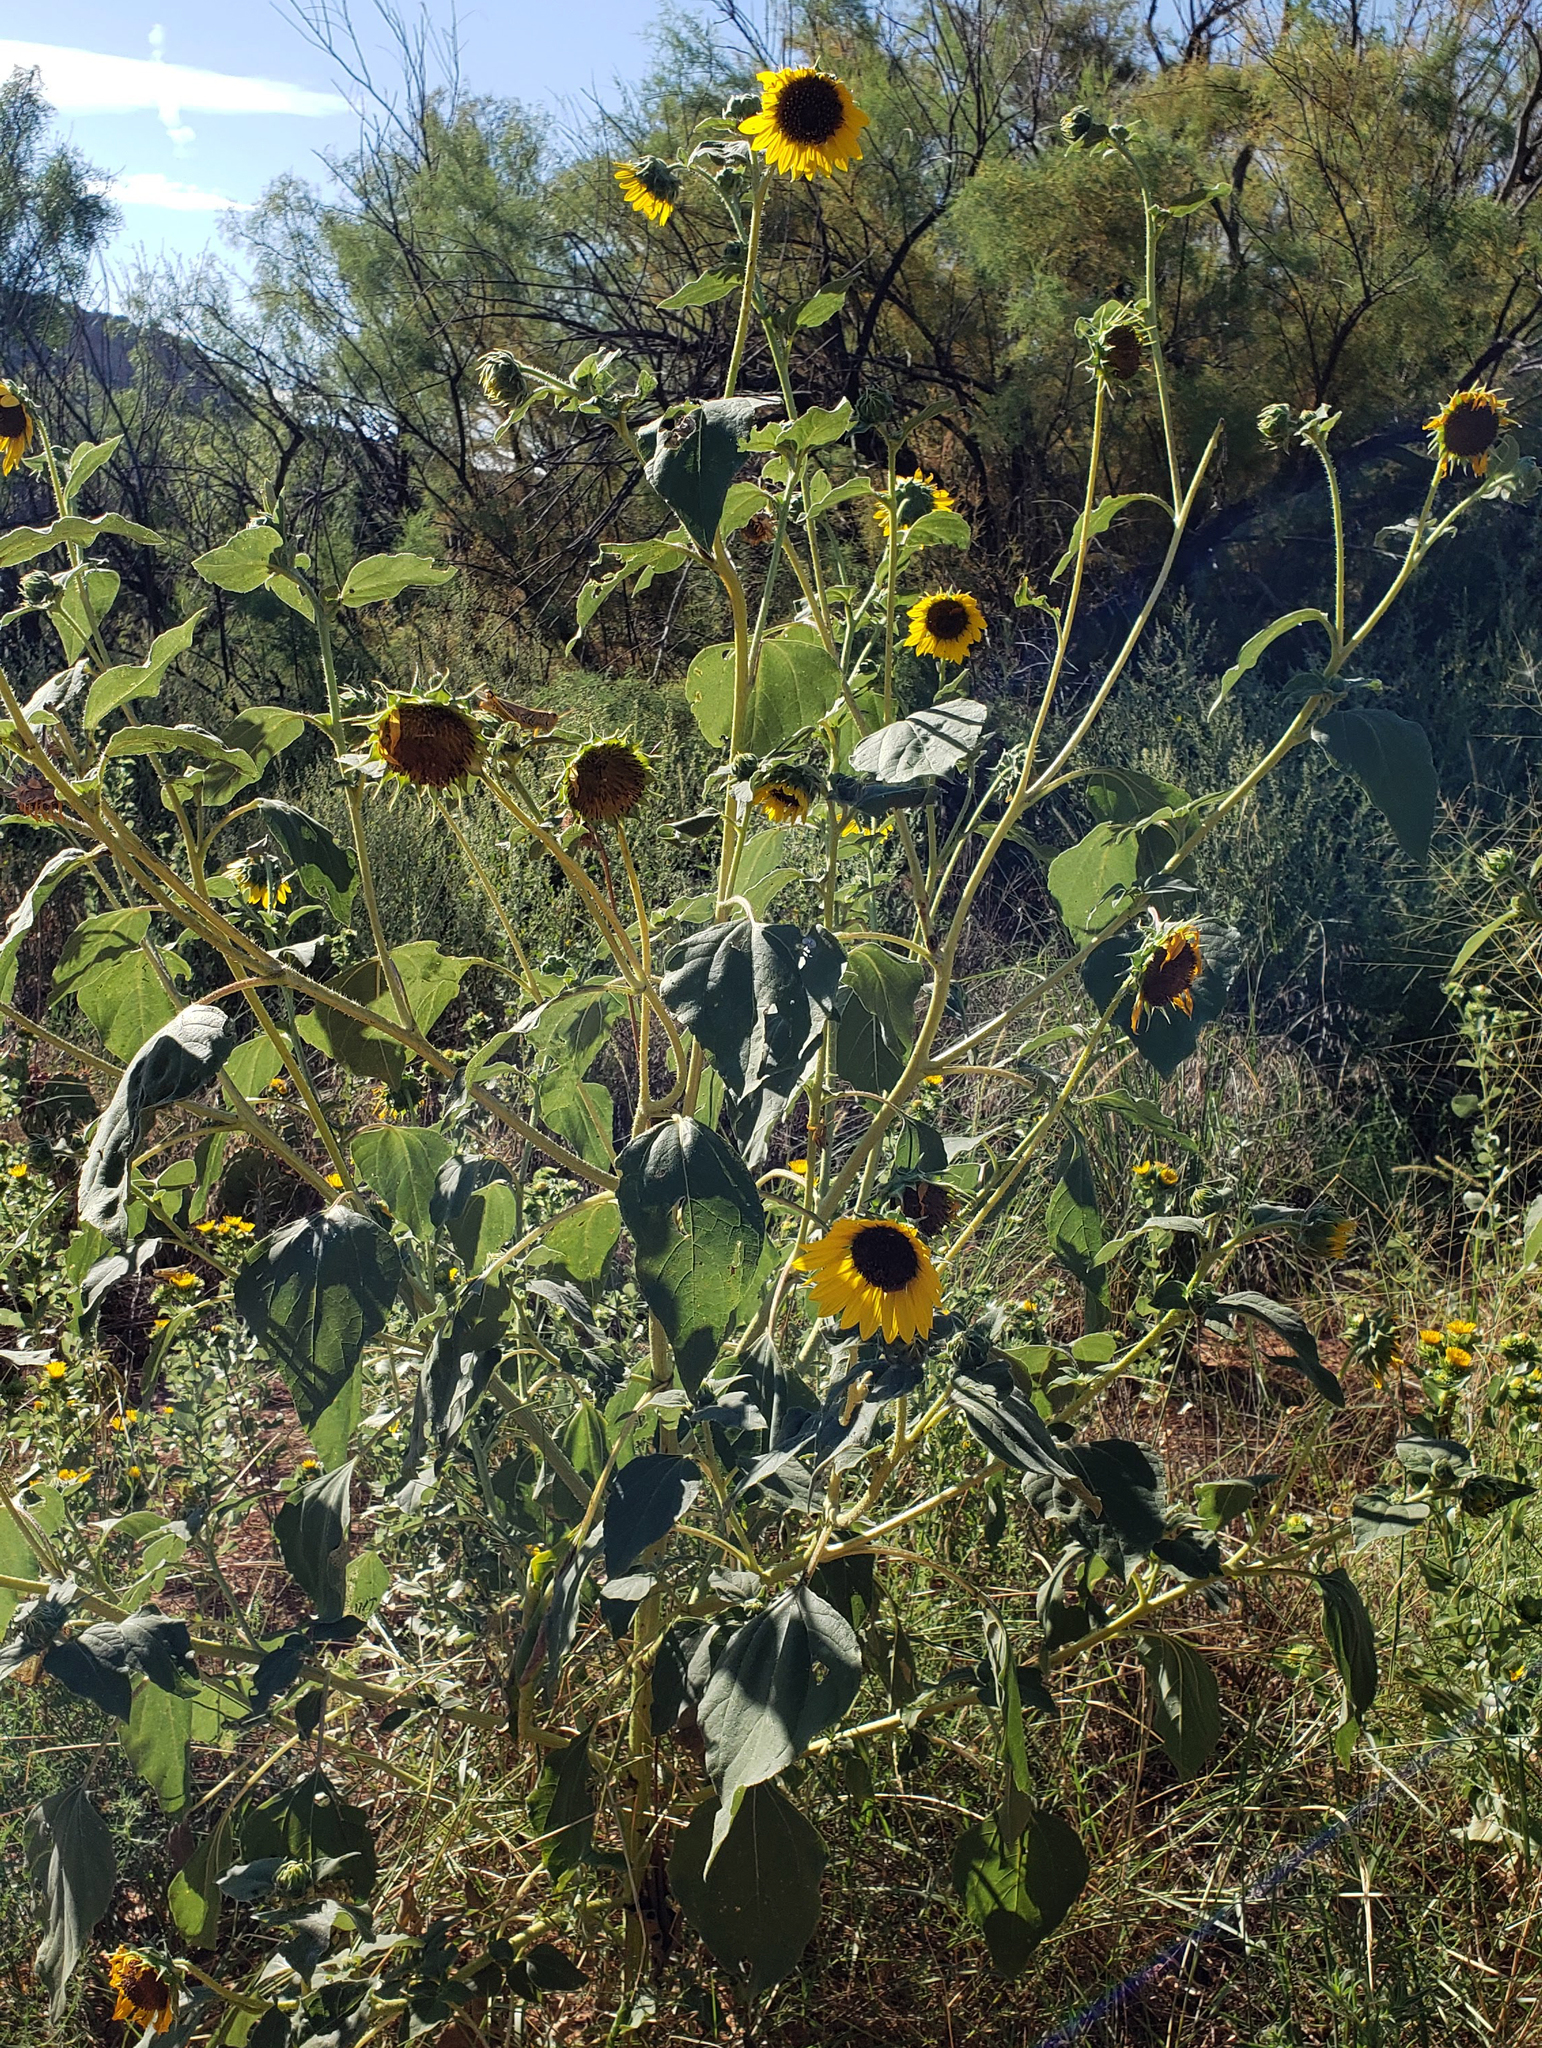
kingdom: Plantae
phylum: Tracheophyta
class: Magnoliopsida
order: Asterales
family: Asteraceae
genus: Helianthus
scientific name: Helianthus annuus
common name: Sunflower
